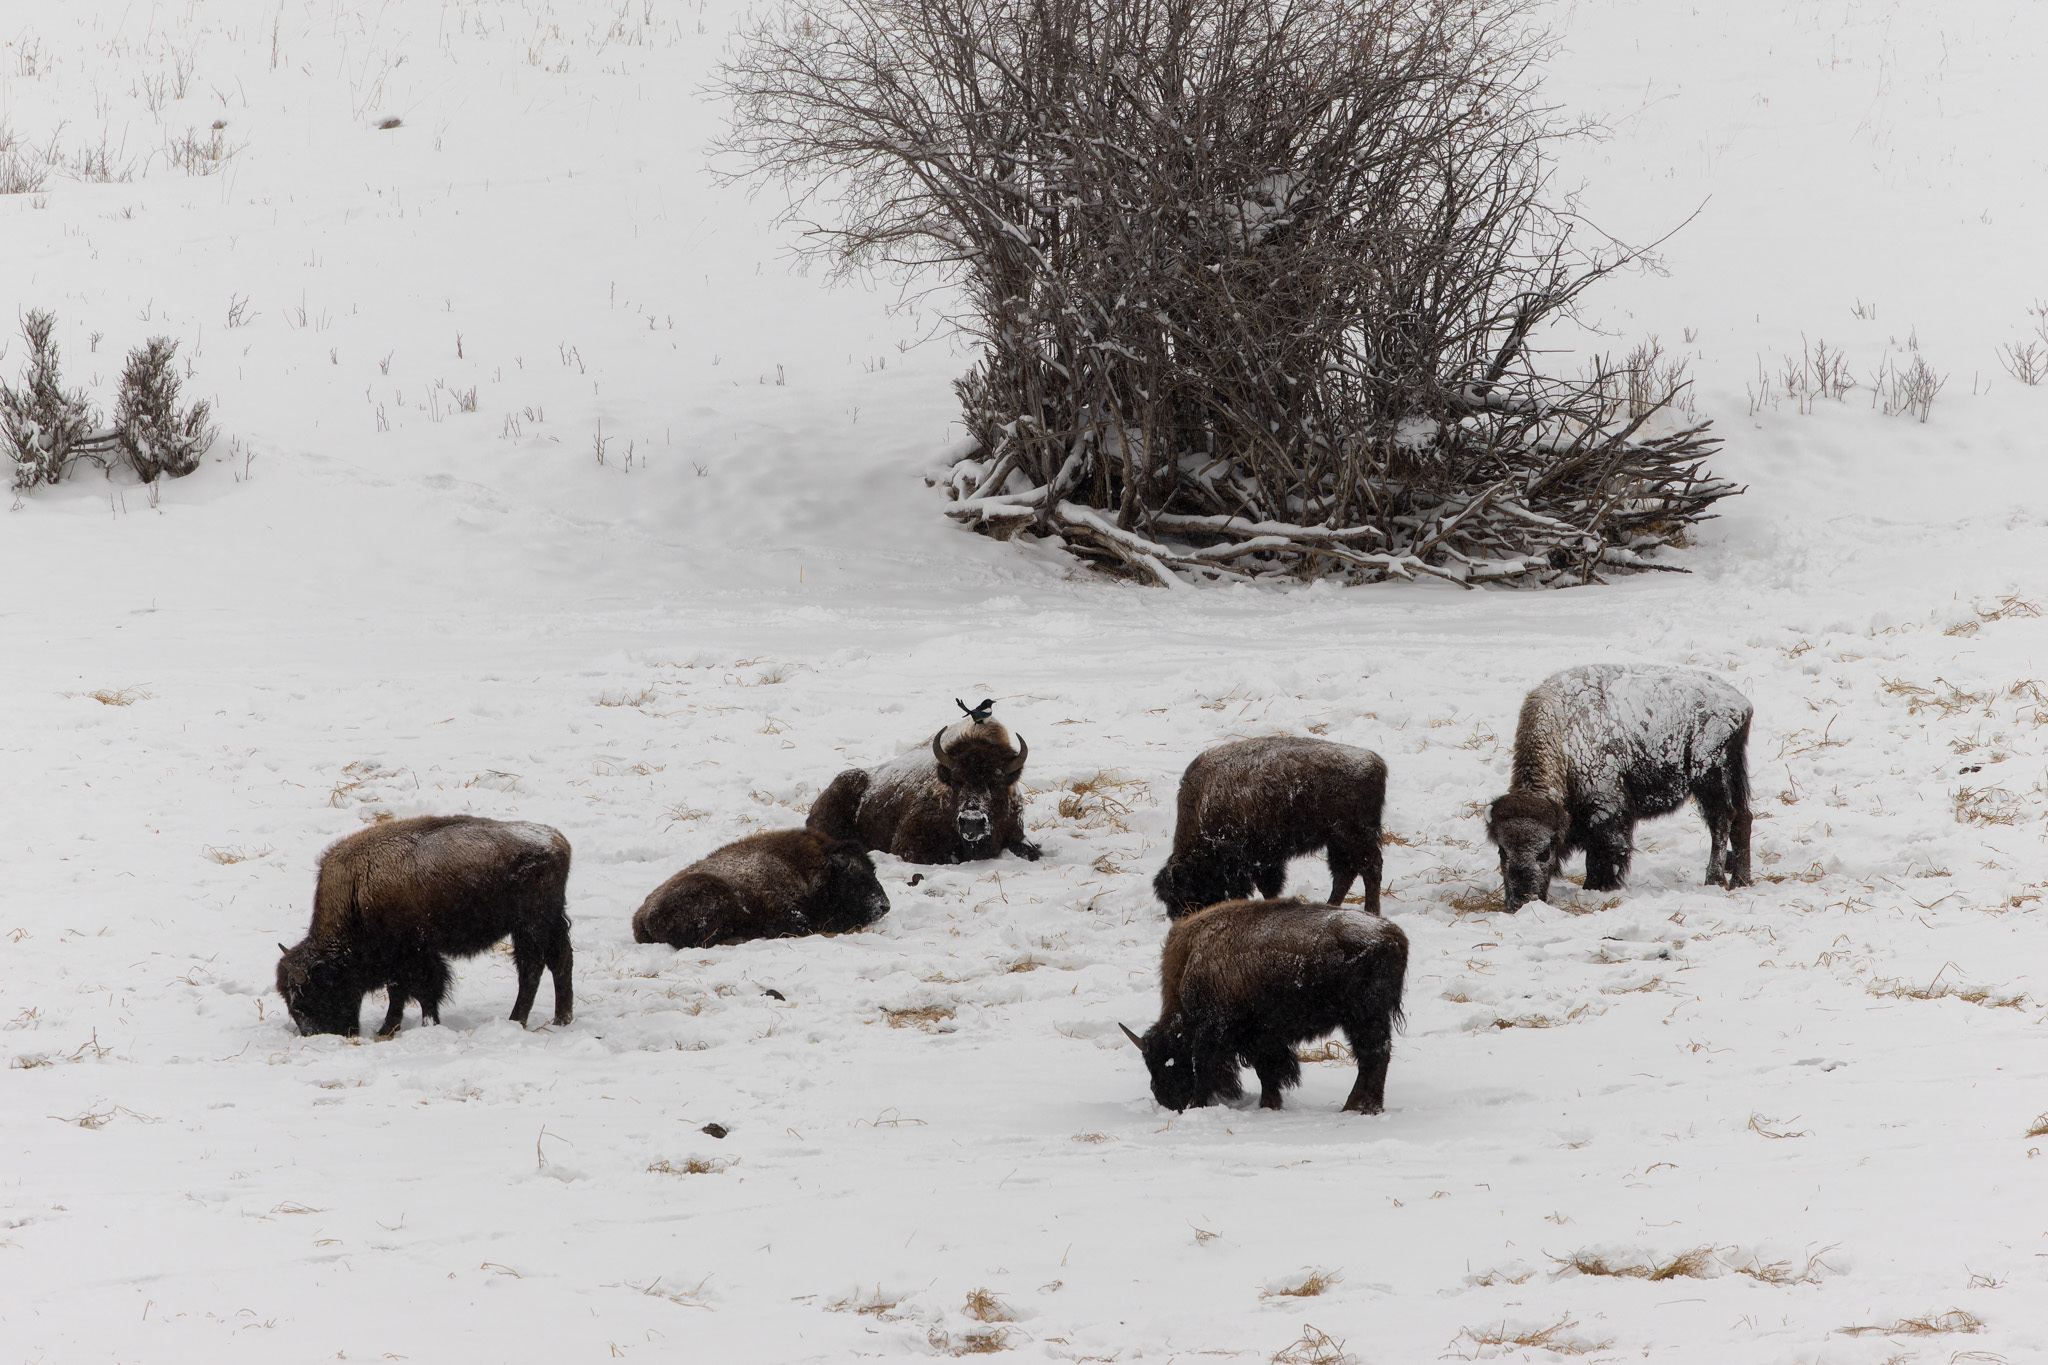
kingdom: Animalia
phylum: Chordata
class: Aves
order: Passeriformes
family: Corvidae
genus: Pica
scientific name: Pica hudsonia
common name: Black-billed magpie
